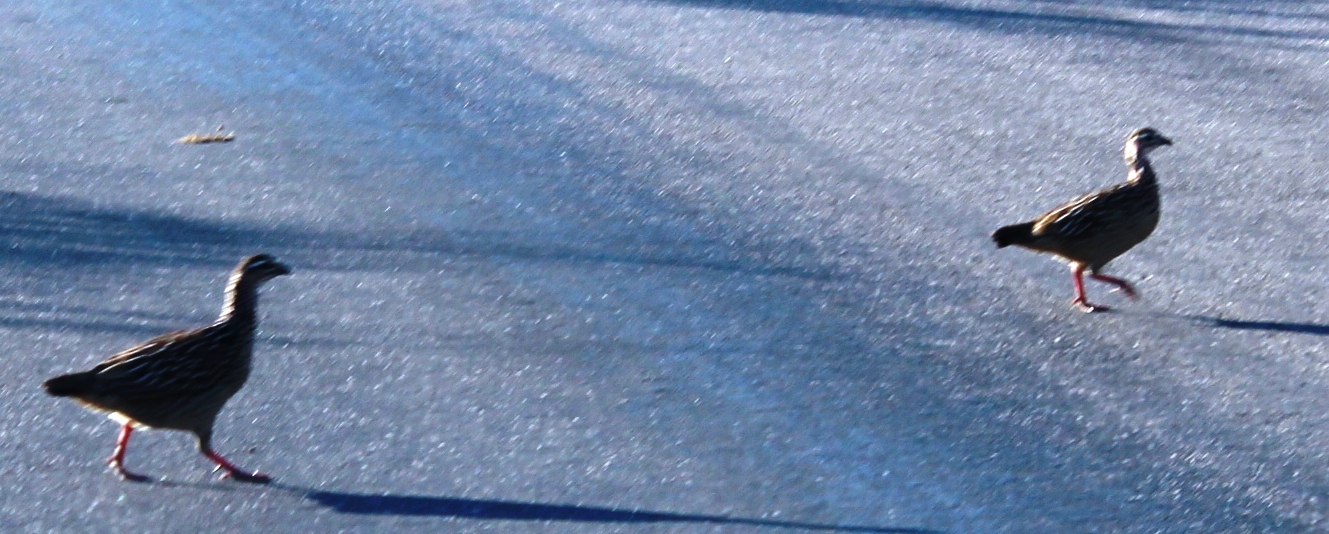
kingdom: Animalia
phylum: Chordata
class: Aves
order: Galliformes
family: Phasianidae
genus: Ortygornis
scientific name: Ortygornis sephaena
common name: Crested francolin
